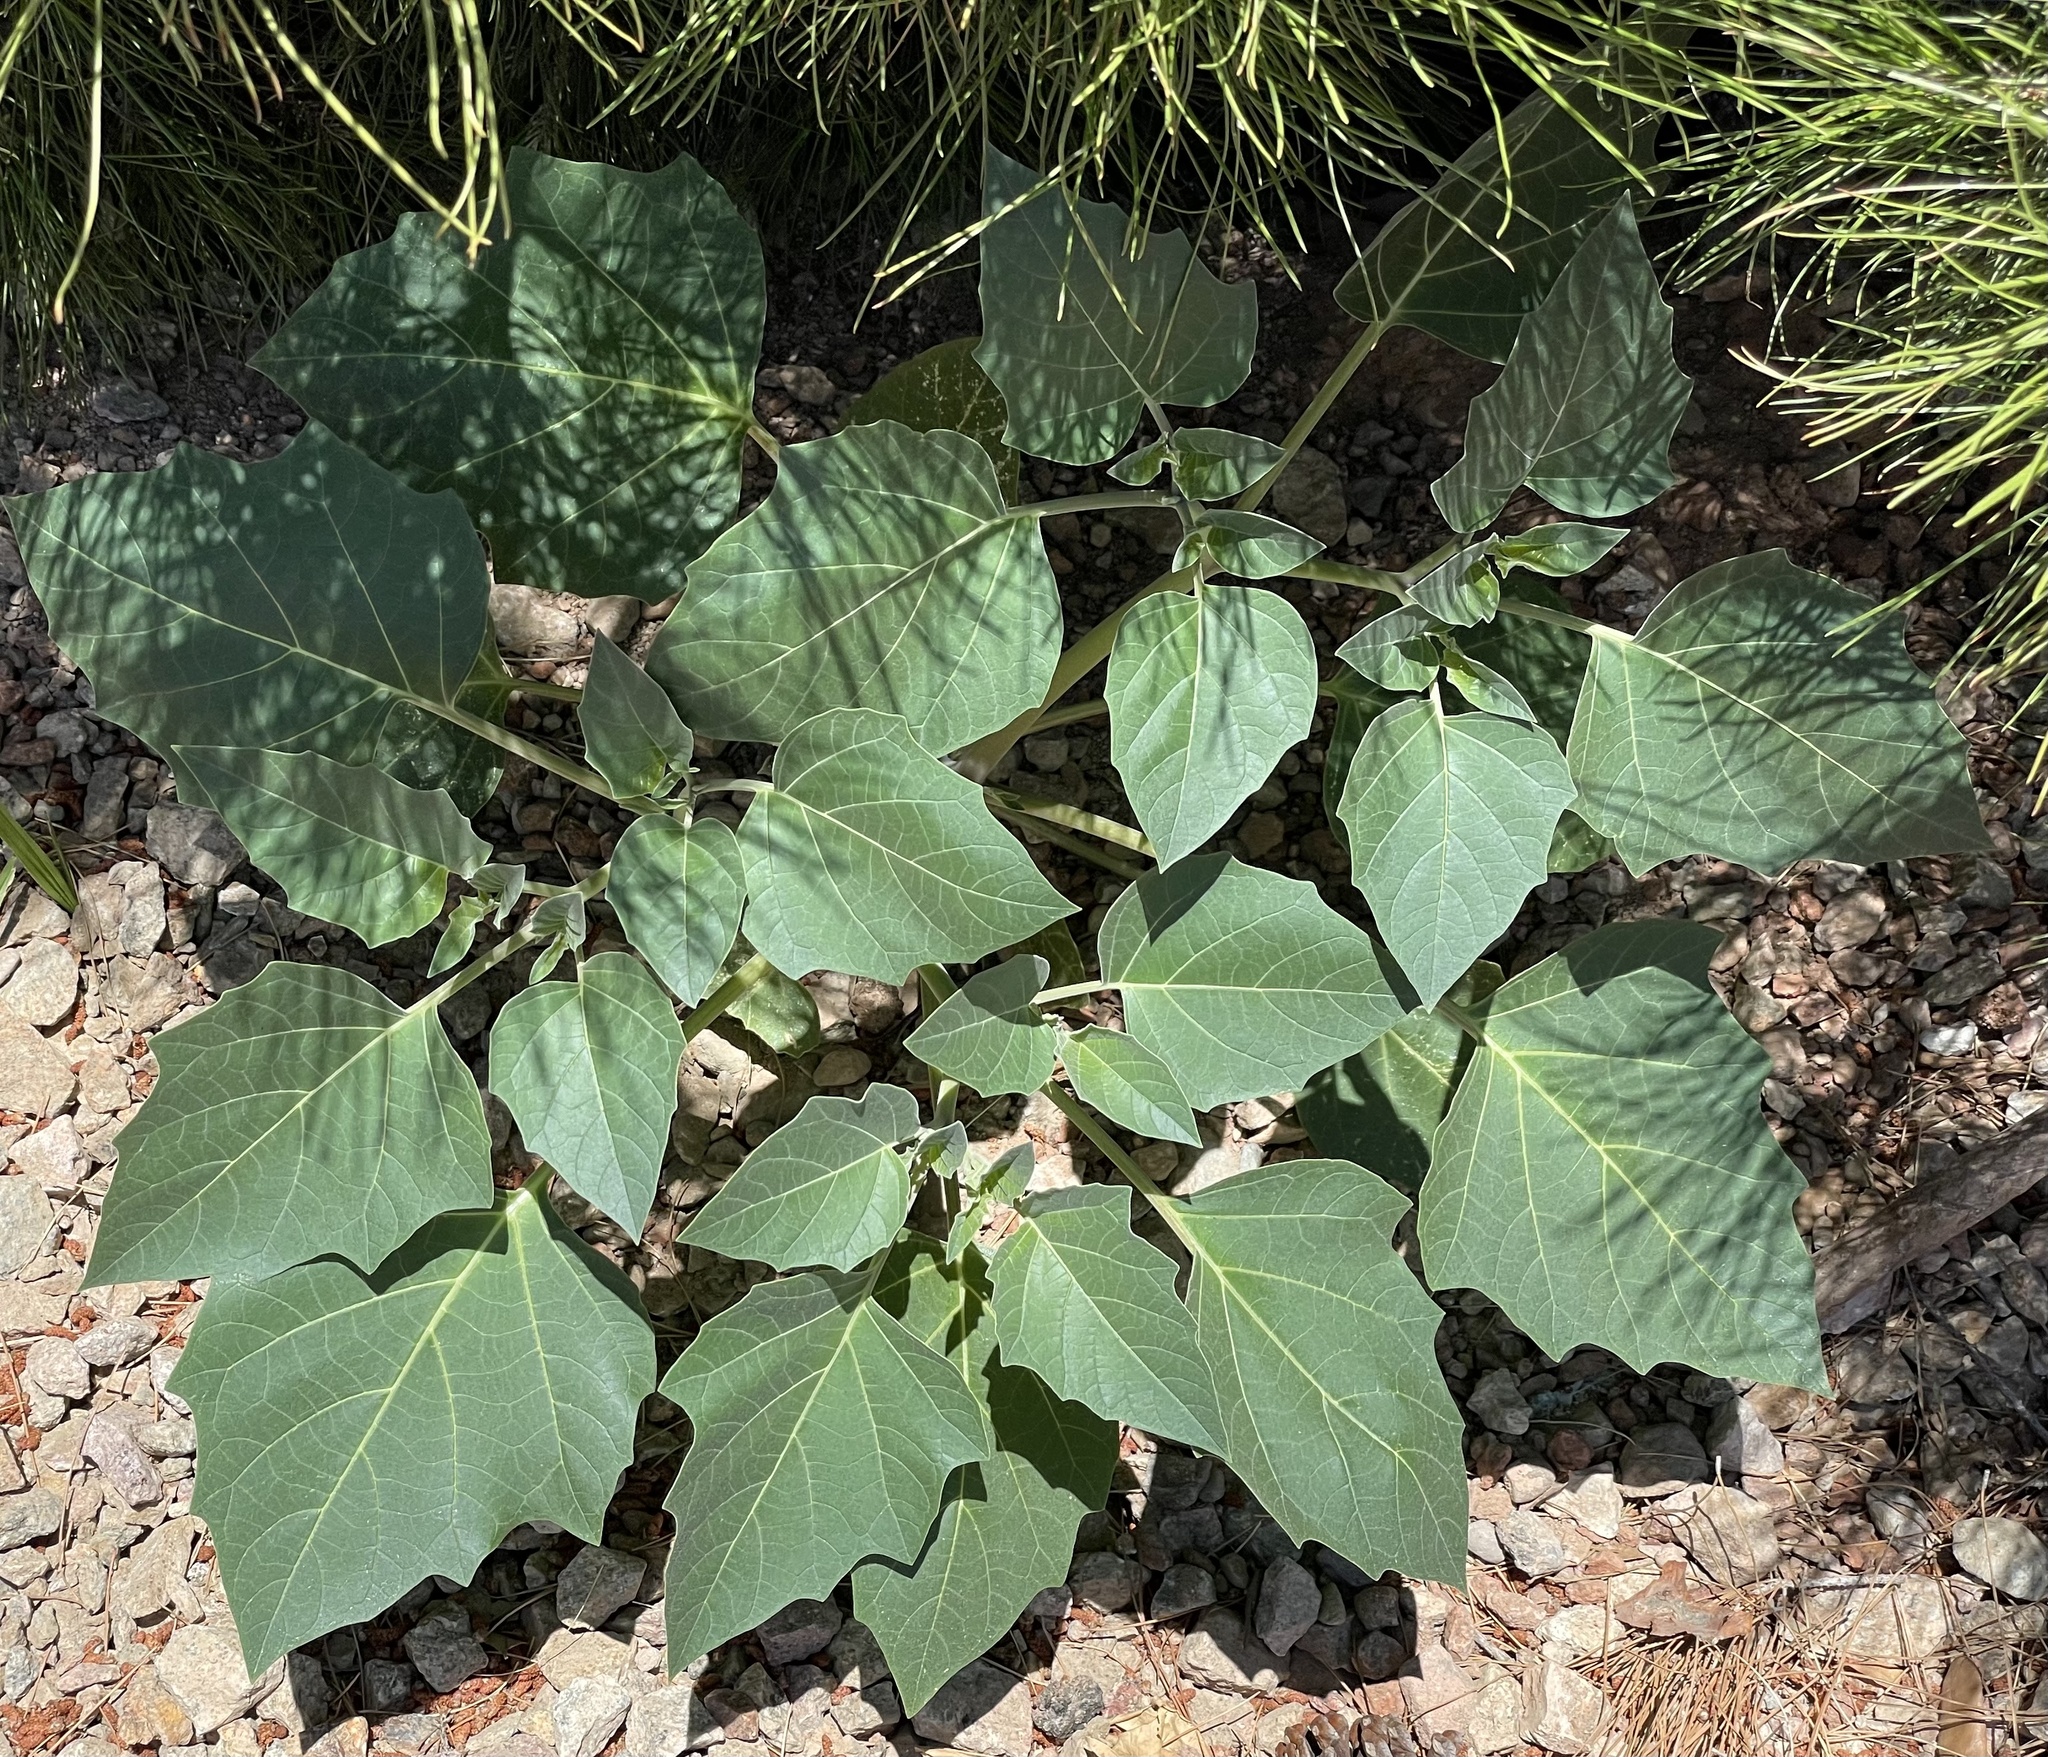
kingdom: Plantae
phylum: Tracheophyta
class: Magnoliopsida
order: Solanales
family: Solanaceae
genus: Datura
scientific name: Datura wrightii
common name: Sacred thorn-apple
